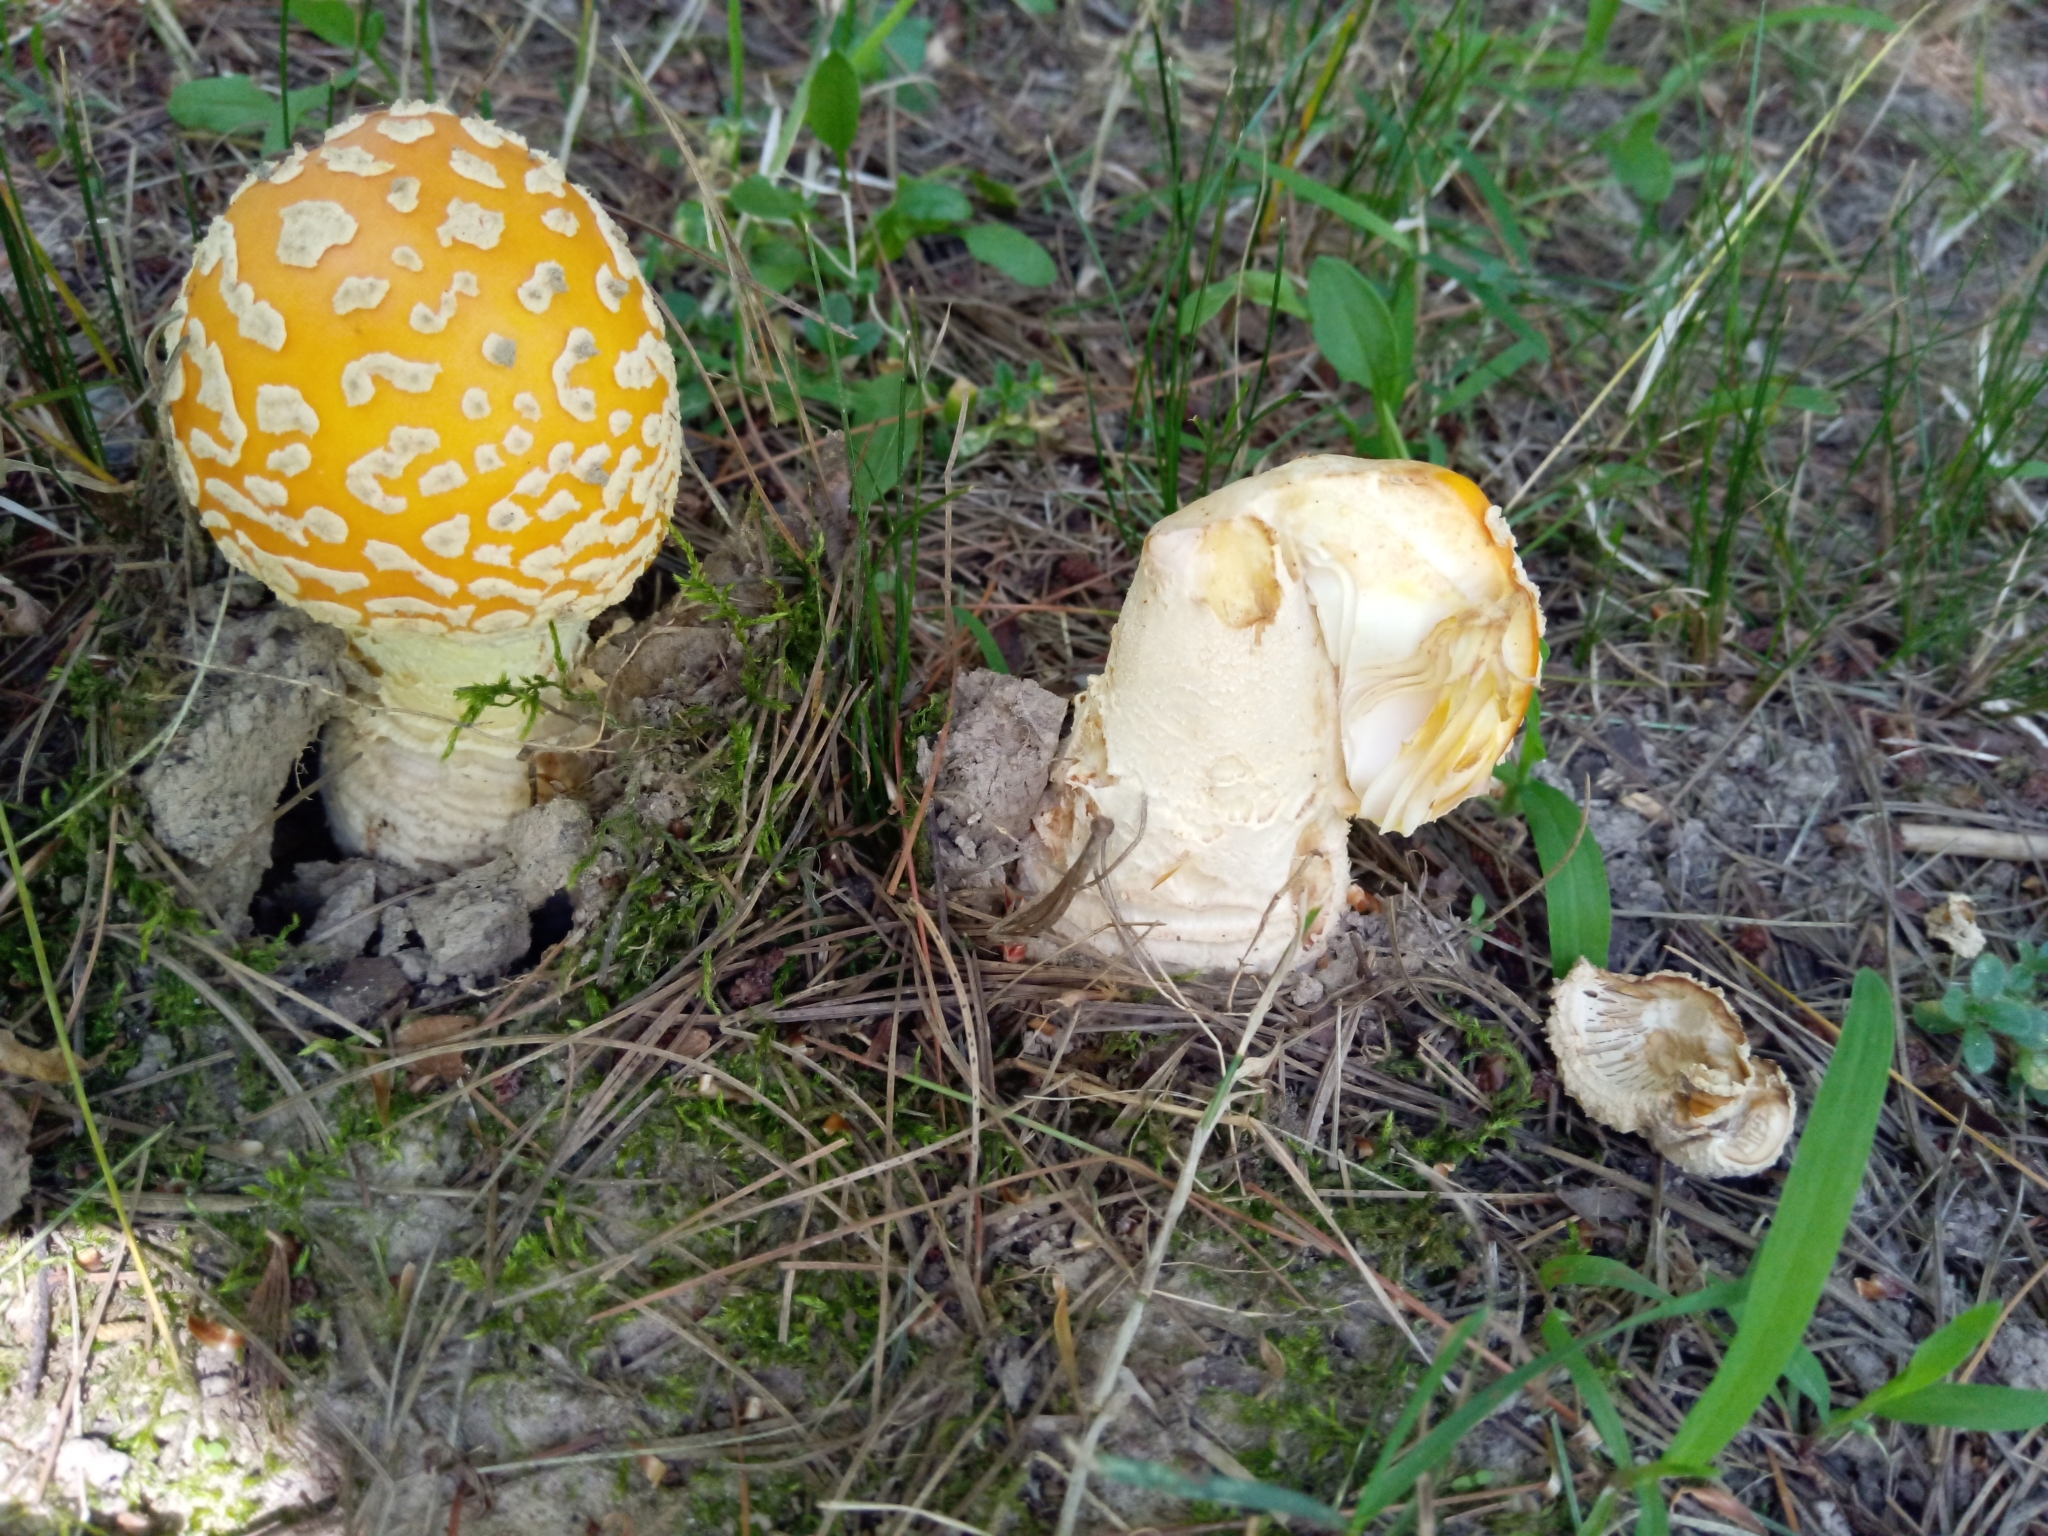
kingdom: Fungi
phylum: Basidiomycota
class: Agaricomycetes
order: Agaricales
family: Amanitaceae
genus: Amanita
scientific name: Amanita muscaria
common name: Fly agaric
